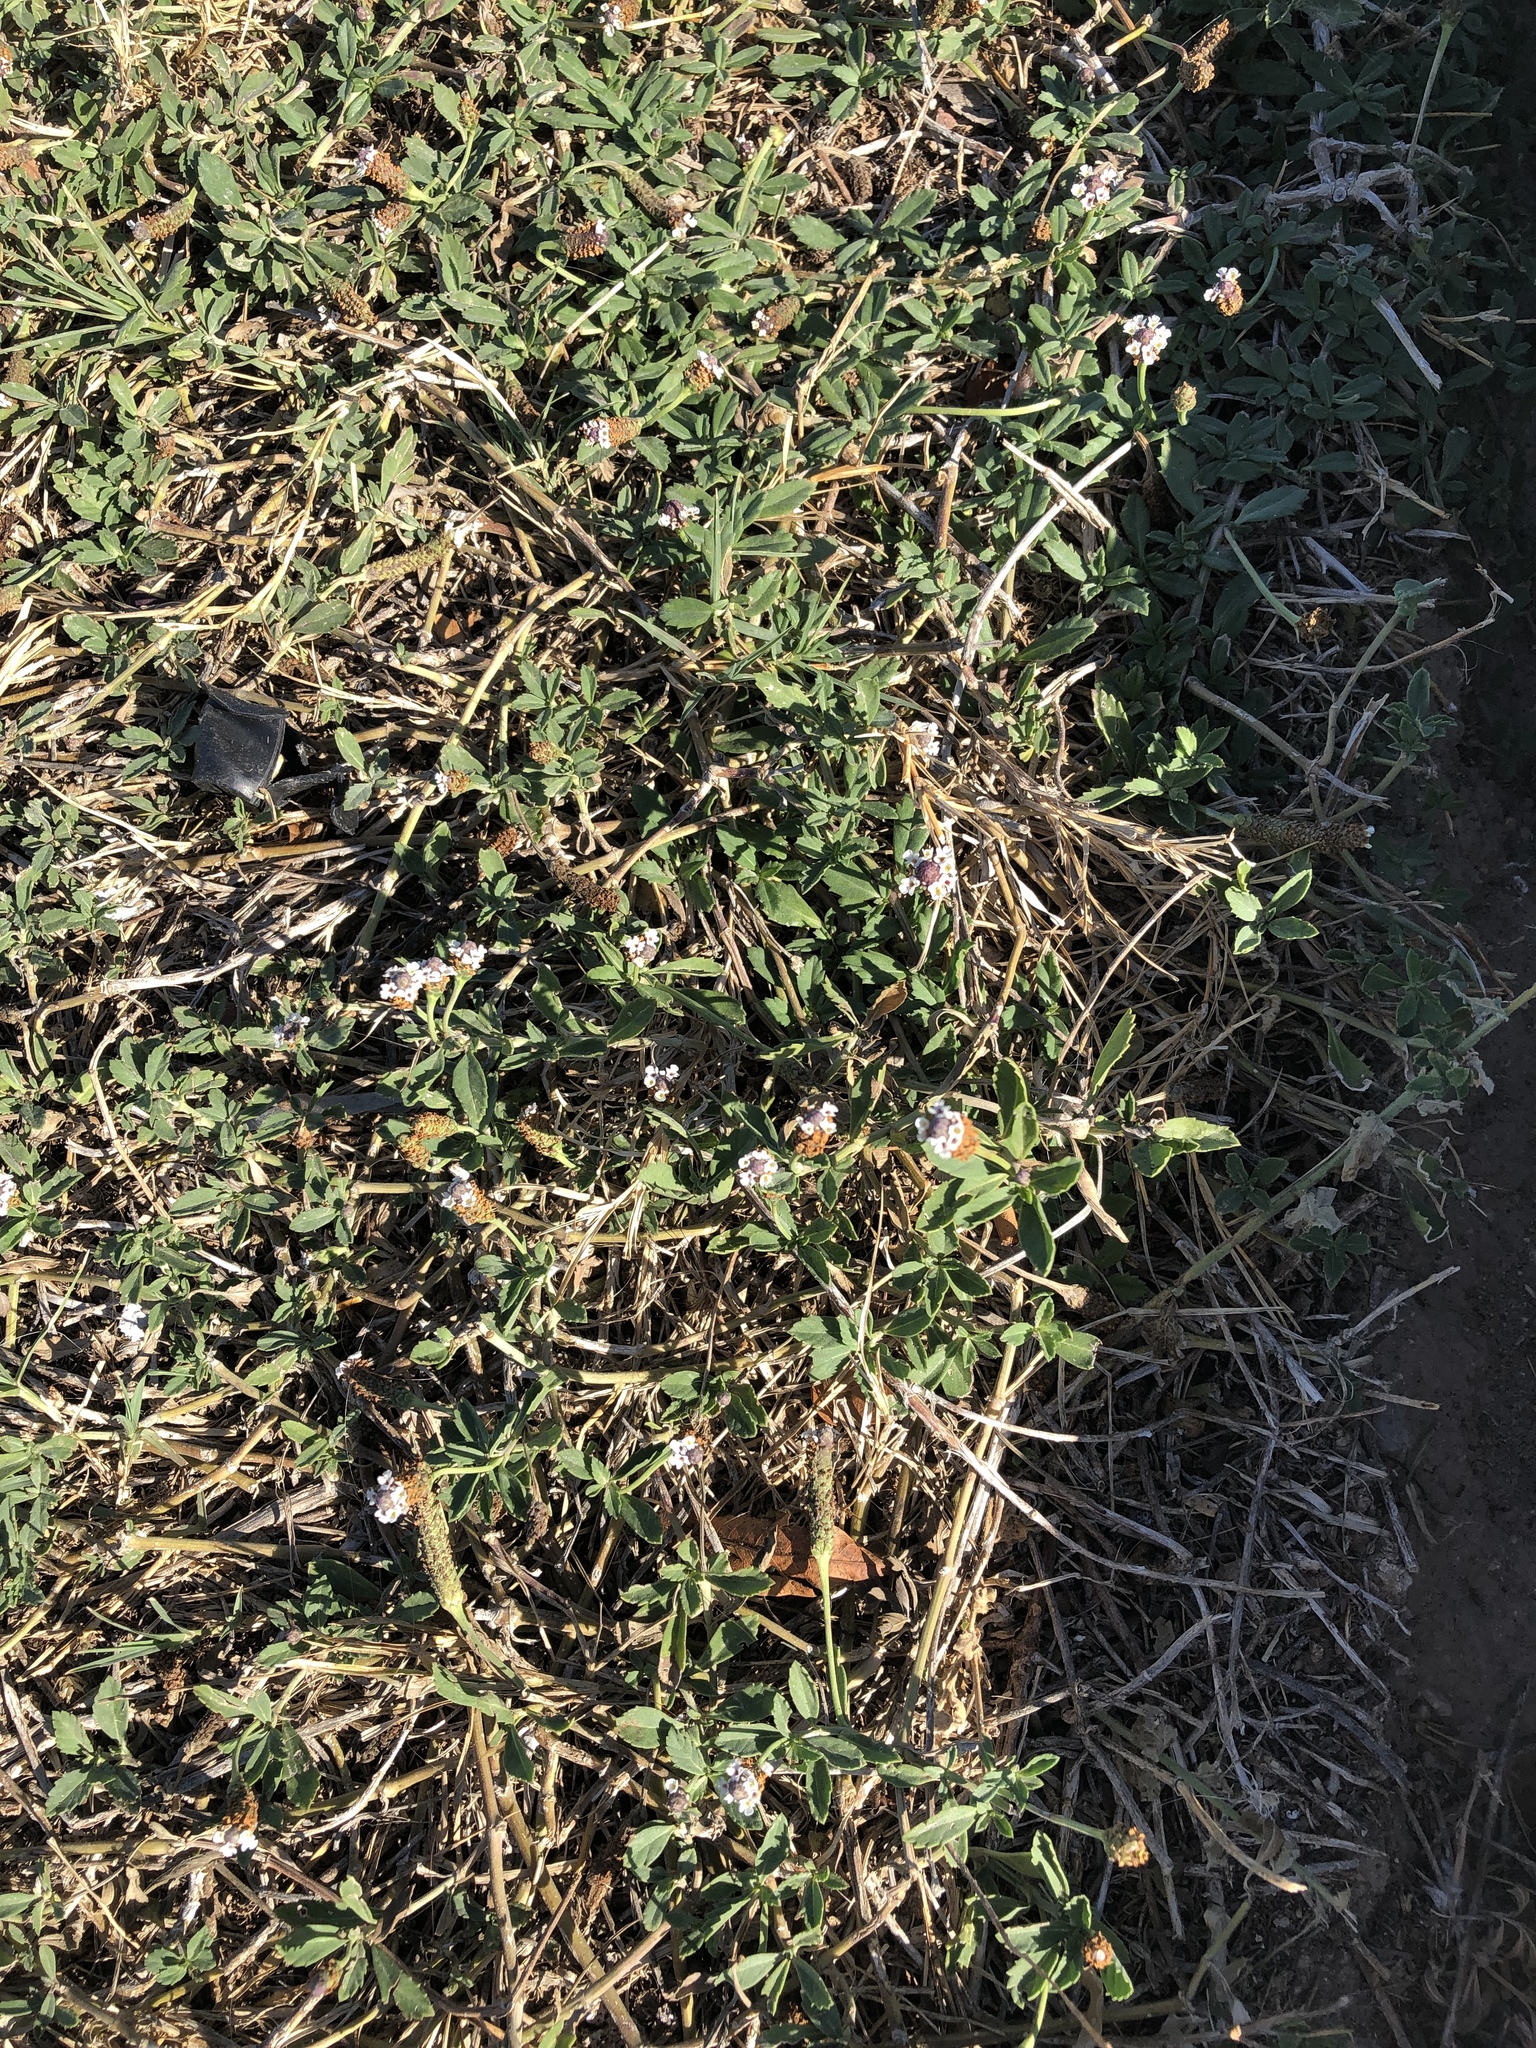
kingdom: Plantae
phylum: Tracheophyta
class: Magnoliopsida
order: Lamiales
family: Verbenaceae
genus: Phyla
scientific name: Phyla nodiflora
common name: Frogfruit
